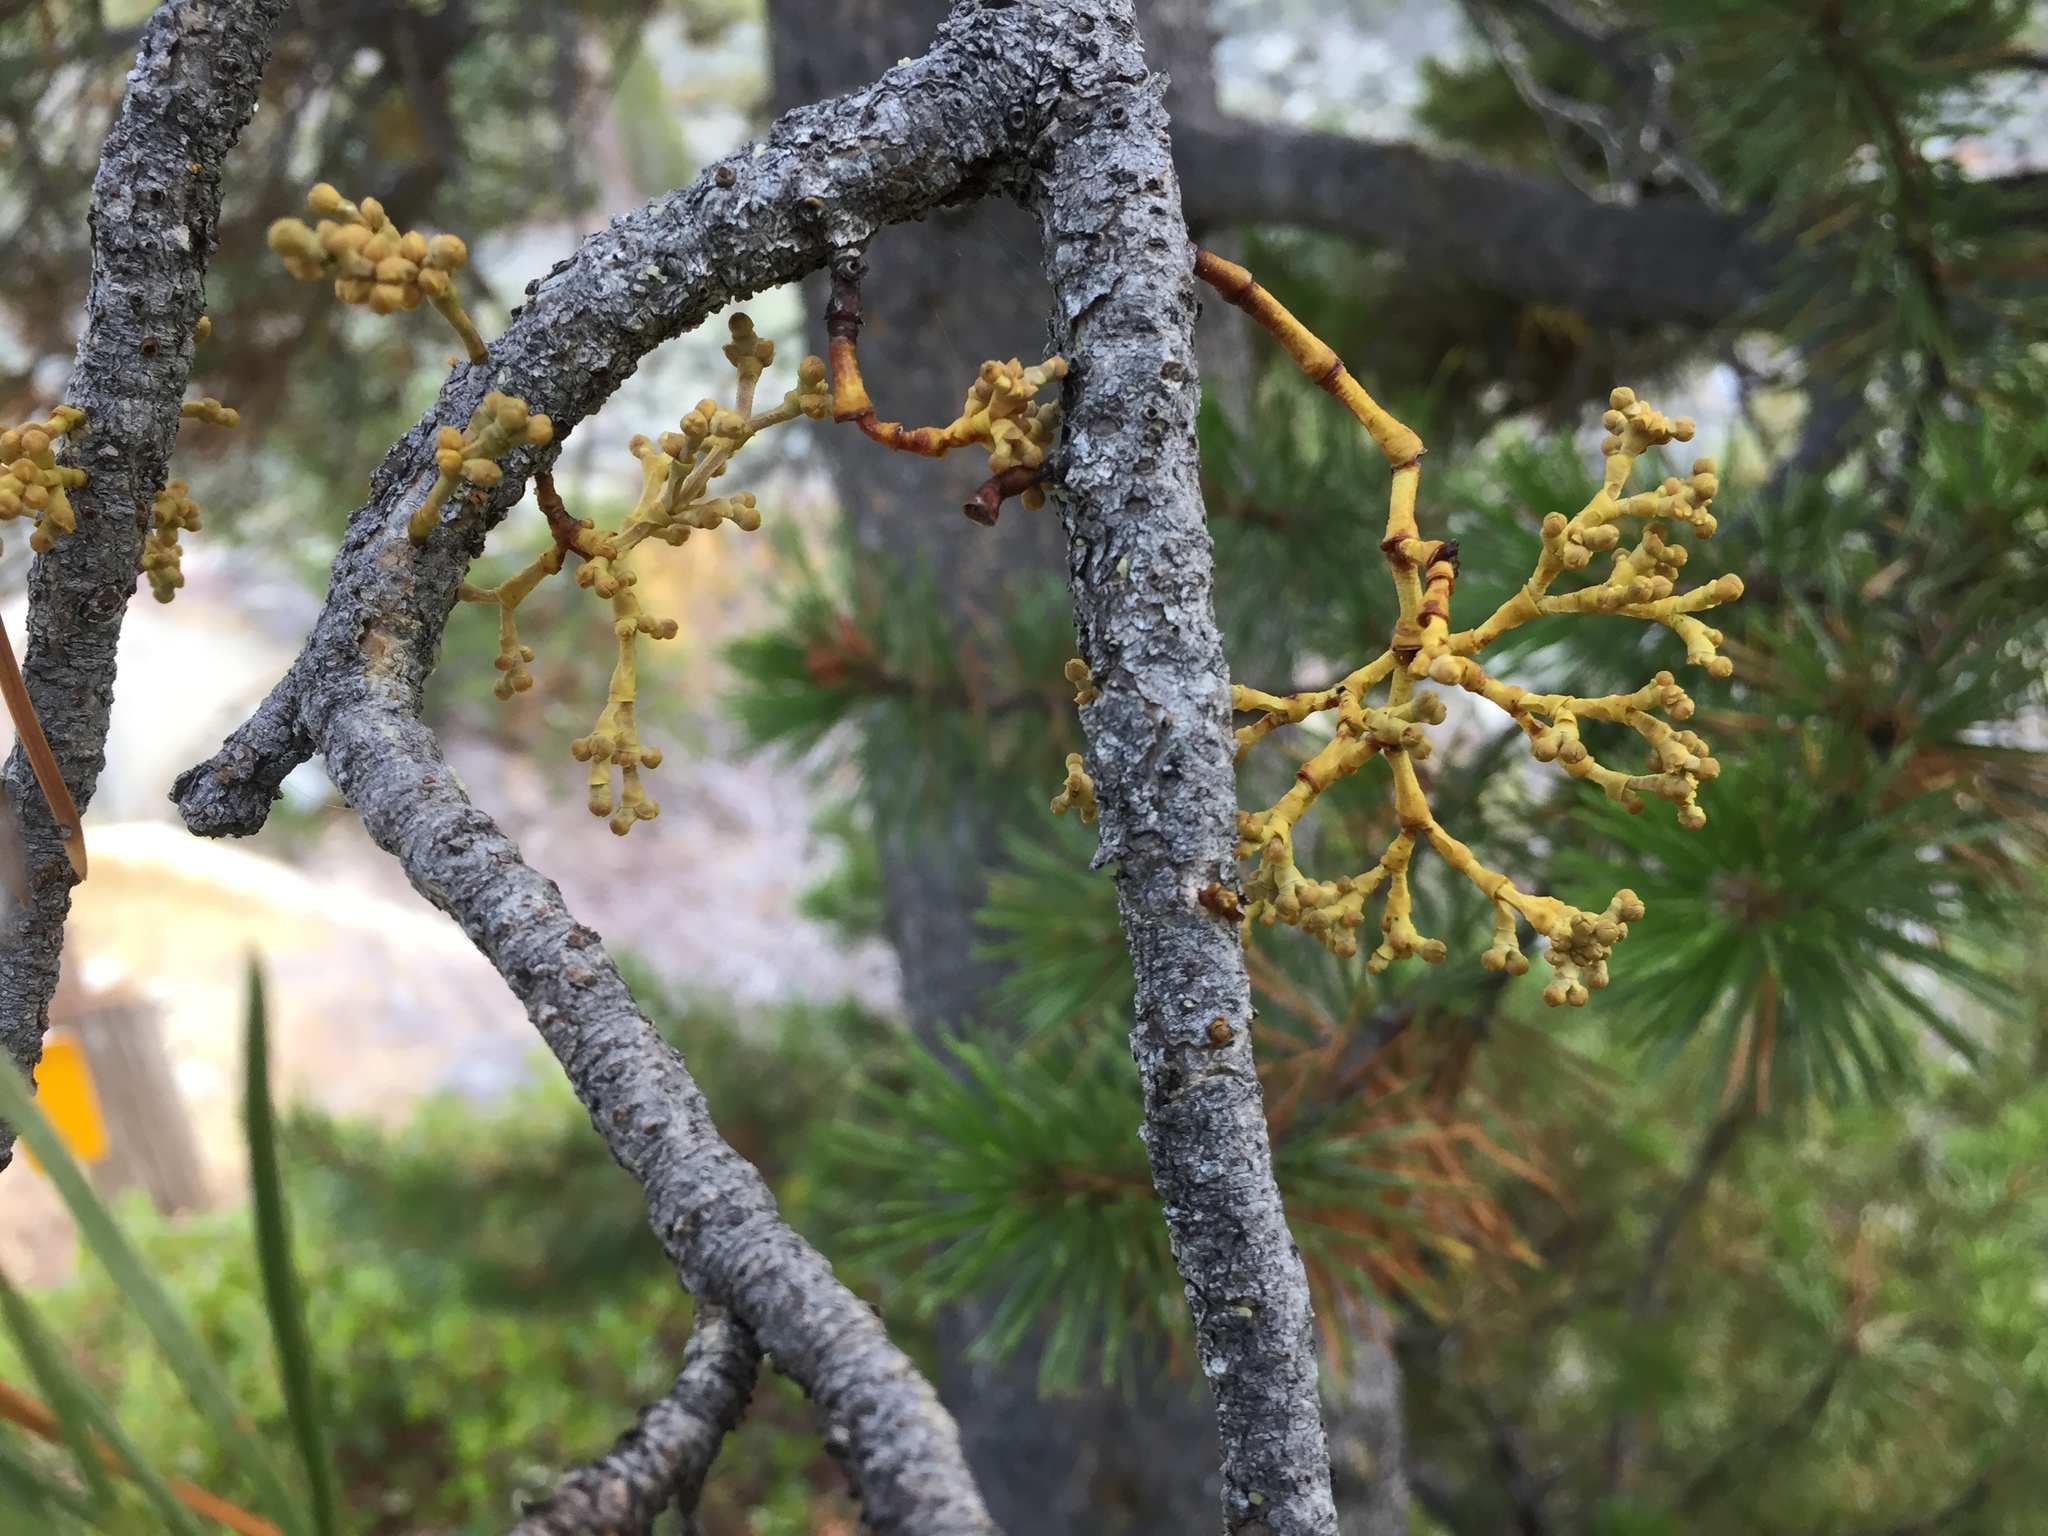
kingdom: Plantae
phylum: Tracheophyta
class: Magnoliopsida
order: Santalales
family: Viscaceae
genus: Arceuthobium
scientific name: Arceuthobium campylopodum
